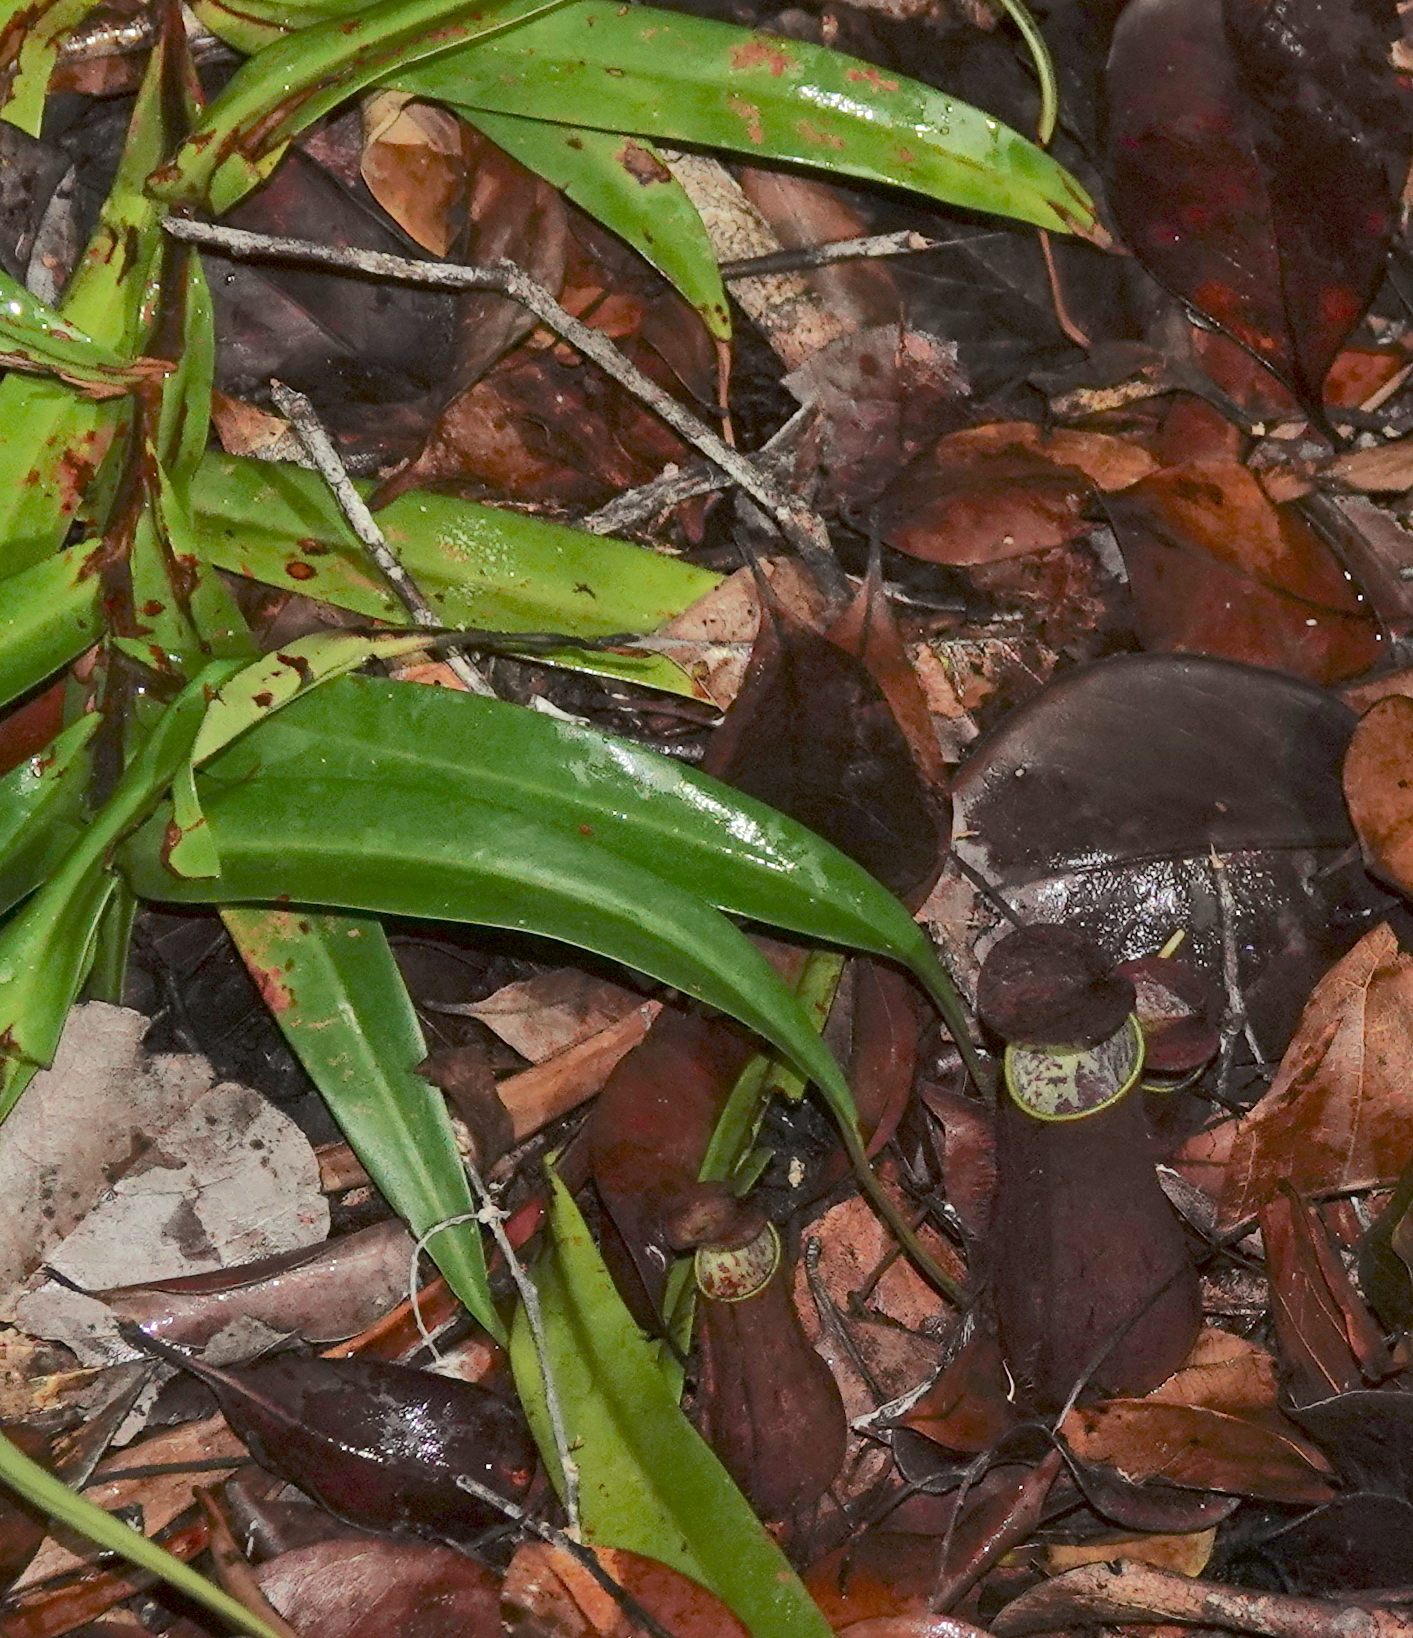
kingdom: Plantae
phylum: Tracheophyta
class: Magnoliopsida
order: Caryophyllales
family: Nepenthaceae
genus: Nepenthes
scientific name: Nepenthes gracilis
